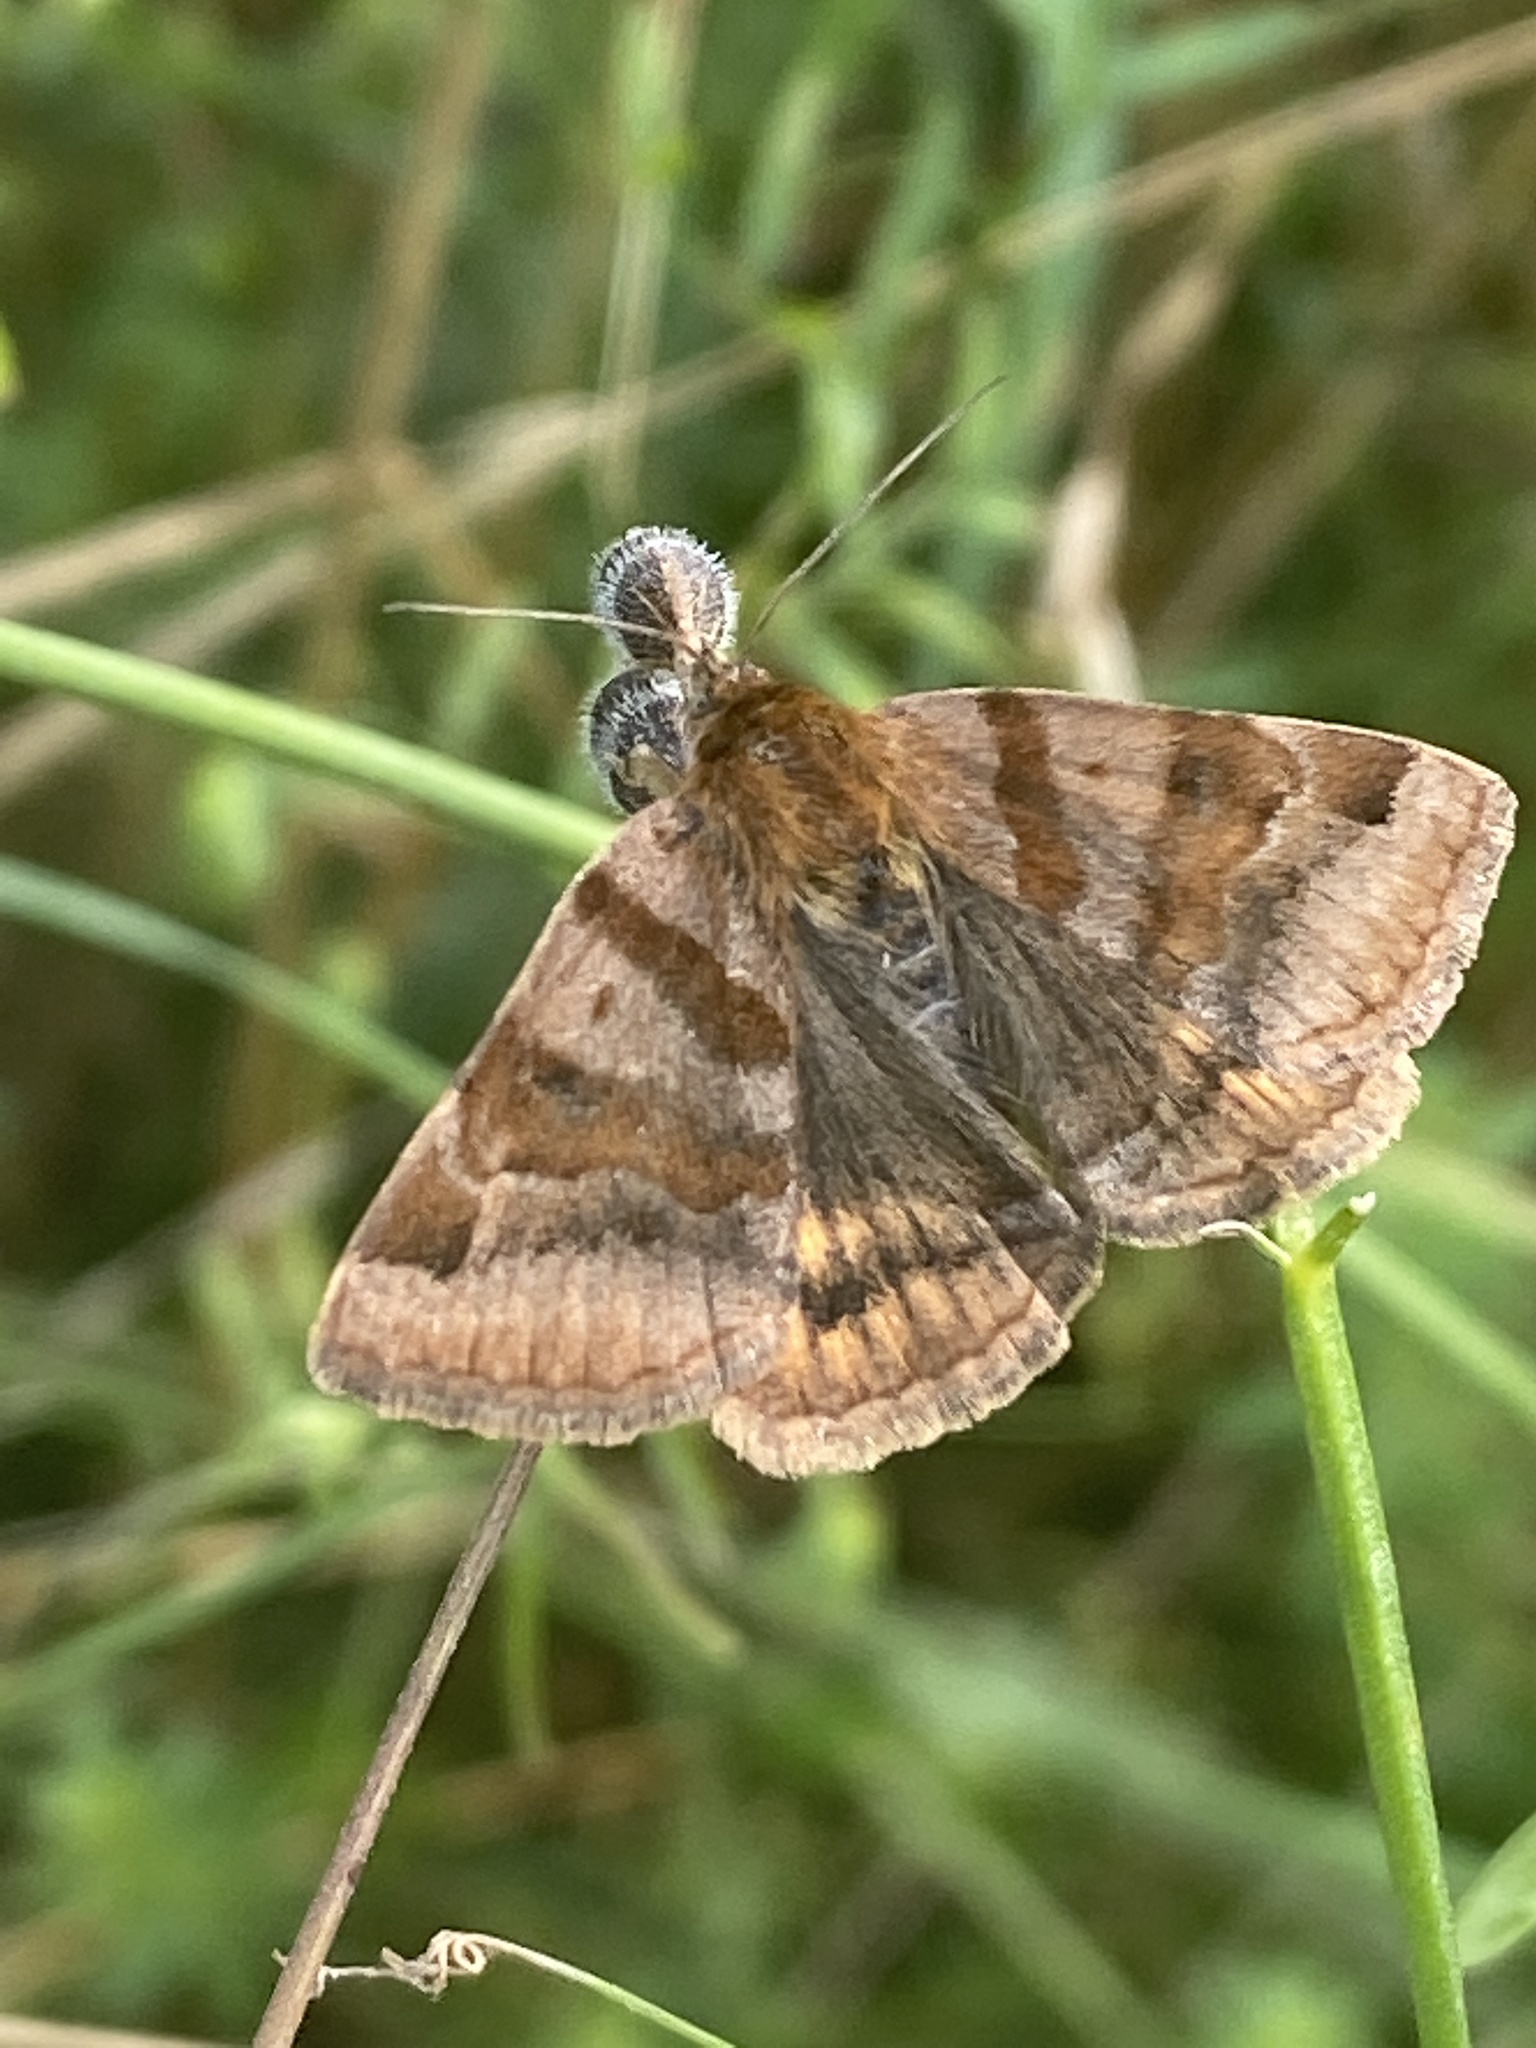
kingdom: Animalia
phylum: Arthropoda
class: Insecta
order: Lepidoptera
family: Erebidae
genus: Euclidia
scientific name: Euclidia glyphica
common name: Burnet companion
